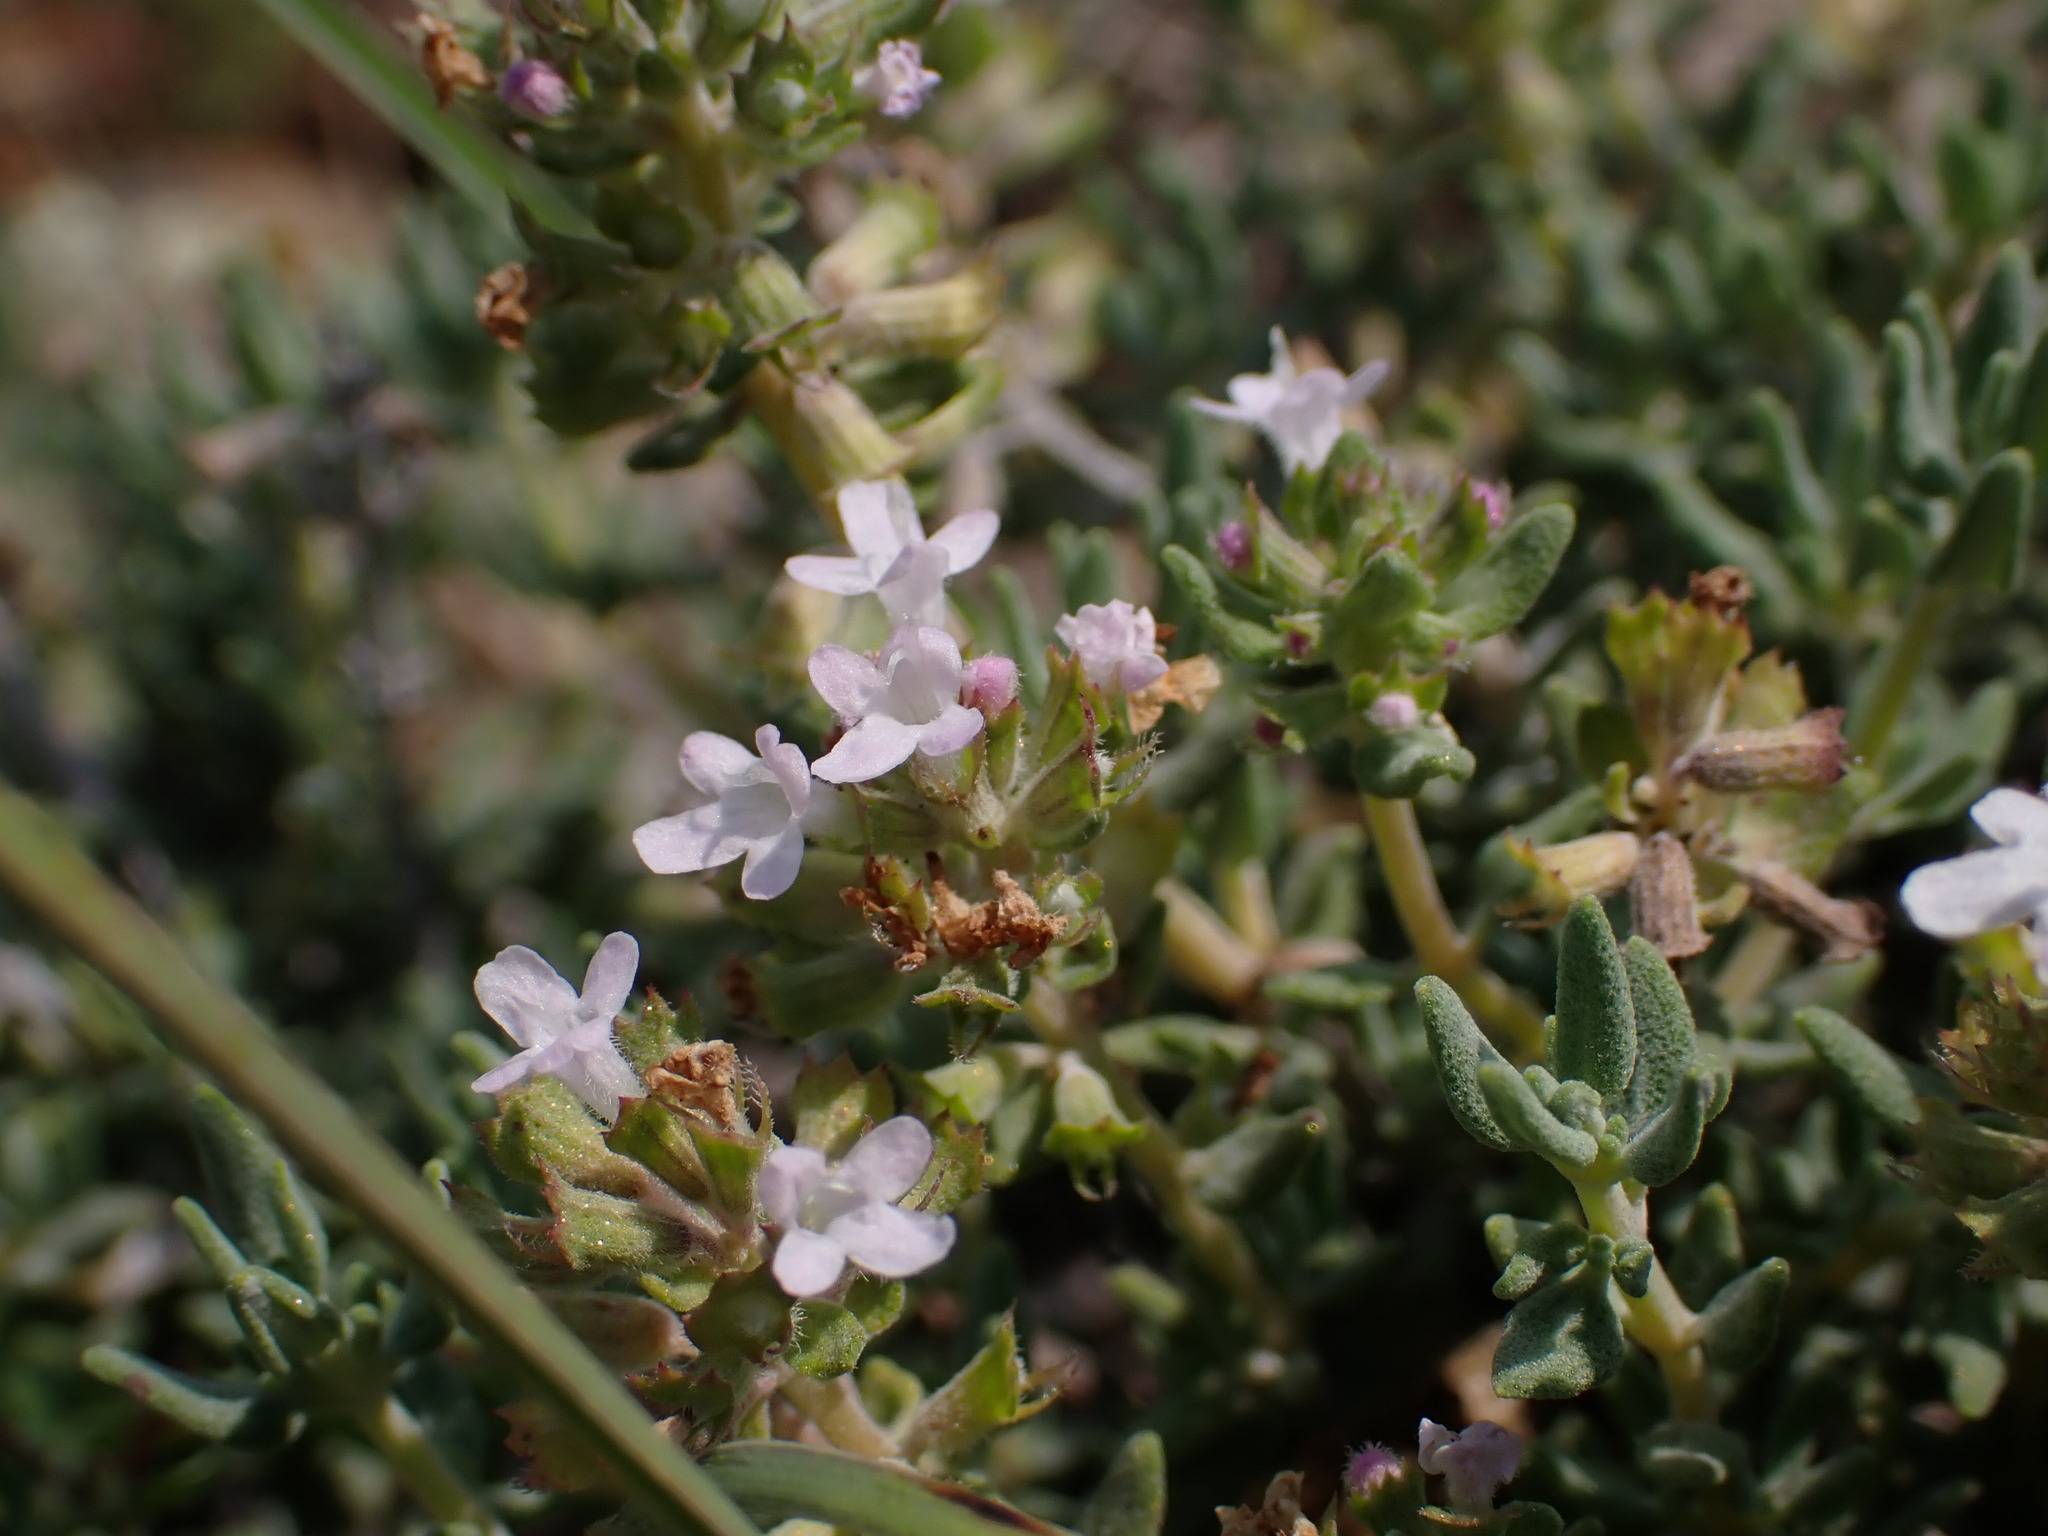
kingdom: Plantae
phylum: Tracheophyta
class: Magnoliopsida
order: Lamiales
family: Lamiaceae
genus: Thymus
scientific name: Thymus vulgaris
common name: Garden thyme
